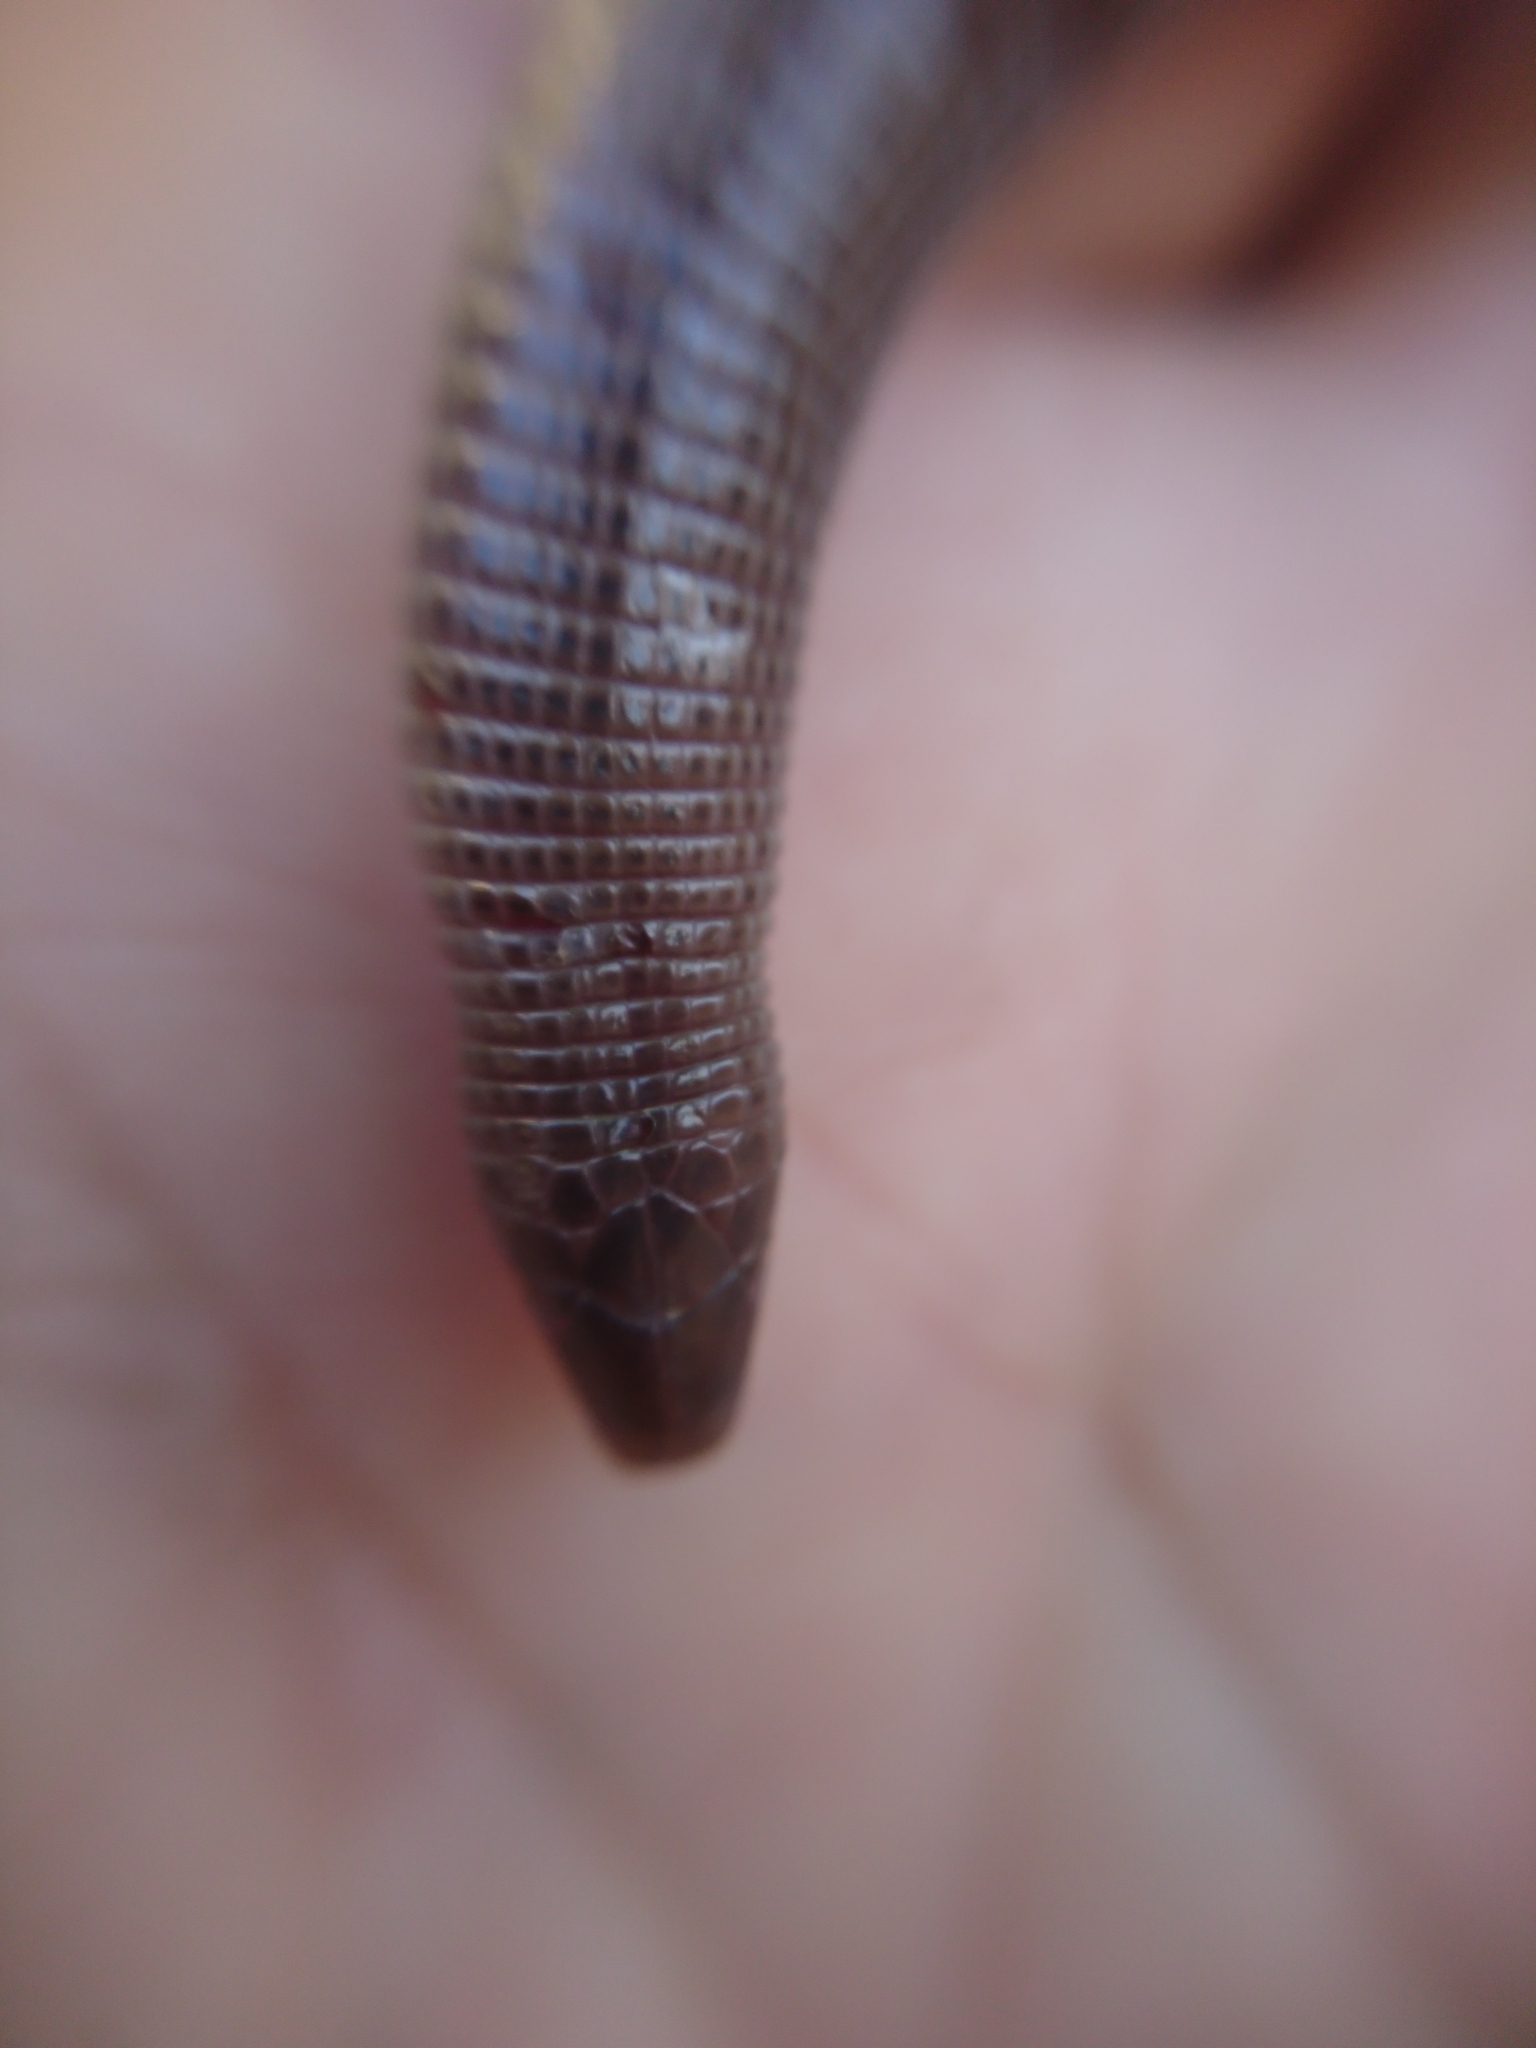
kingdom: Animalia
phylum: Chordata
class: Squamata
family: Amphisbaenidae
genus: Amphisbaena
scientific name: Amphisbaena darwinii
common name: Darwin's ringed worm lizard
